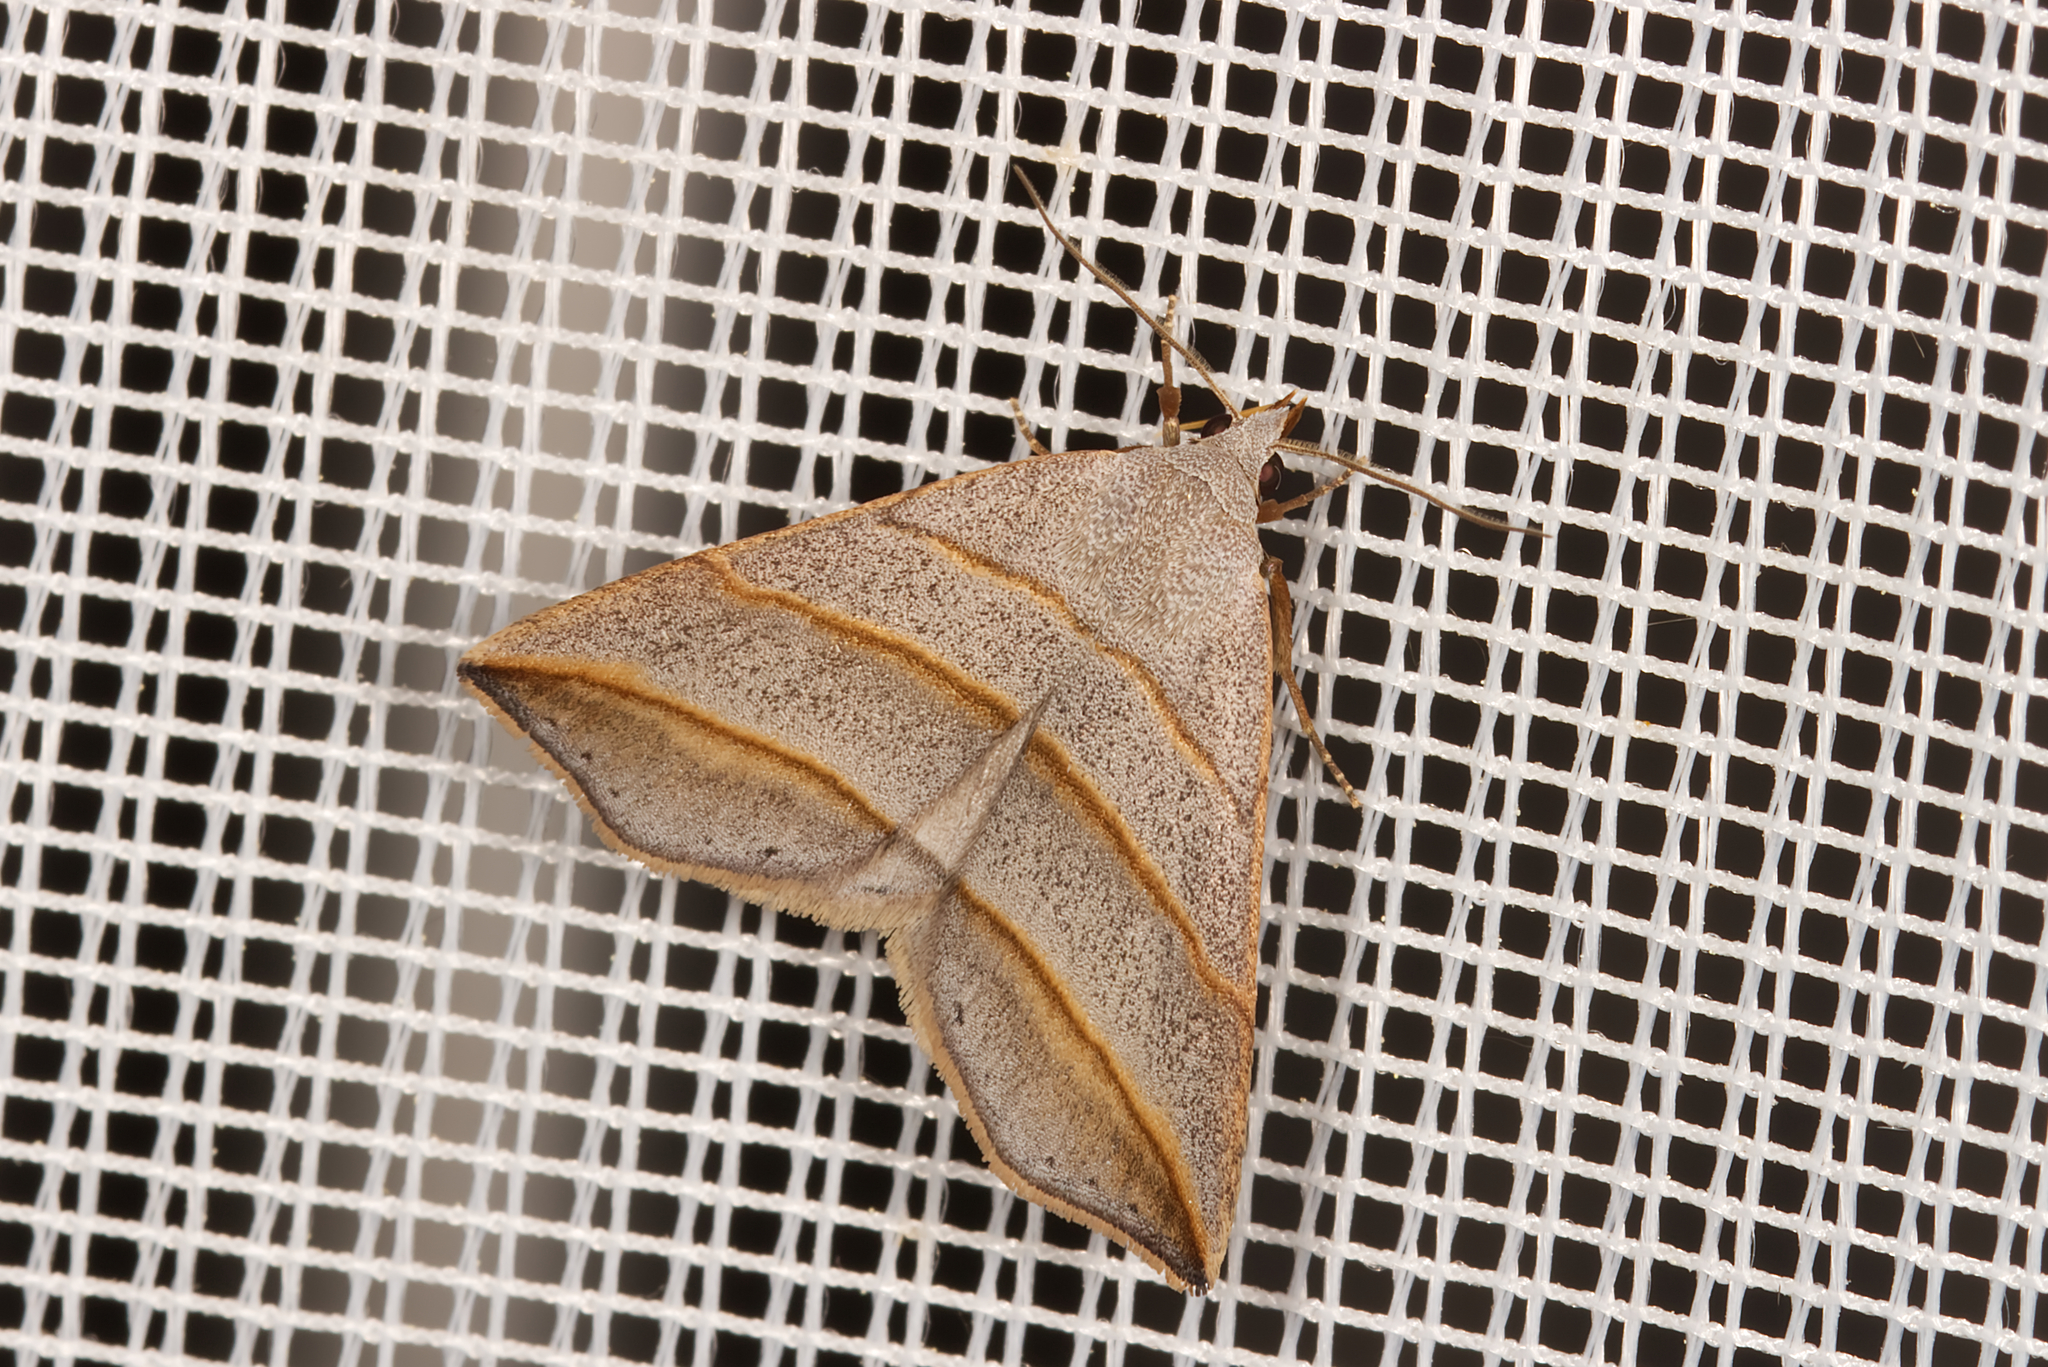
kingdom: Animalia
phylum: Arthropoda
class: Insecta
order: Lepidoptera
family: Erebidae
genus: Colobochyla
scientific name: Colobochyla salicalis
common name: Lesser belle
